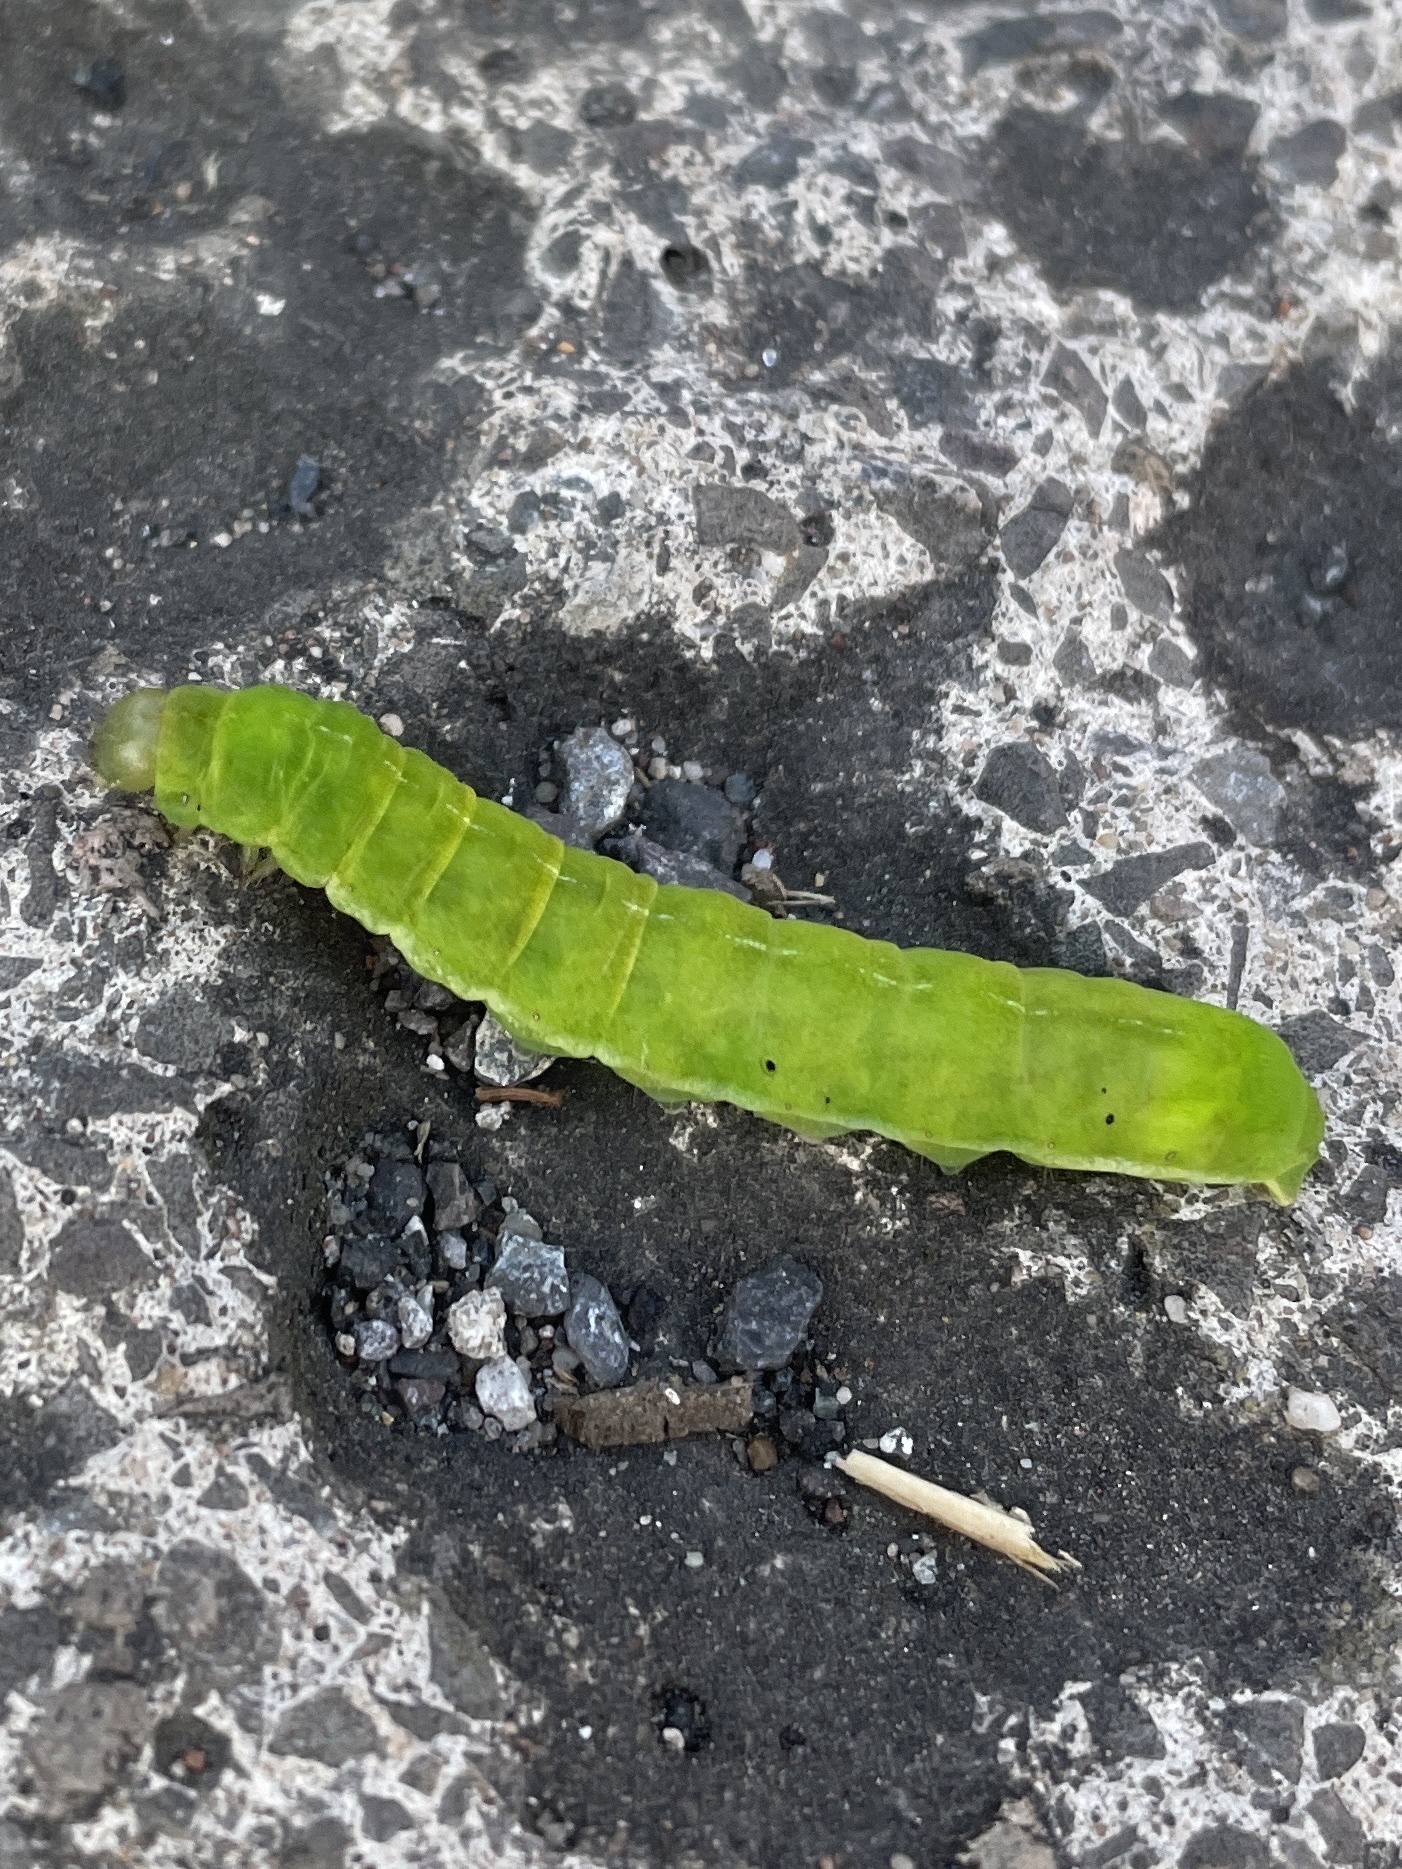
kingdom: Animalia
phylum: Arthropoda
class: Insecta
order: Lepidoptera
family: Noctuidae
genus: Phlogophora
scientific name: Phlogophora meticulosa
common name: Angle shades
